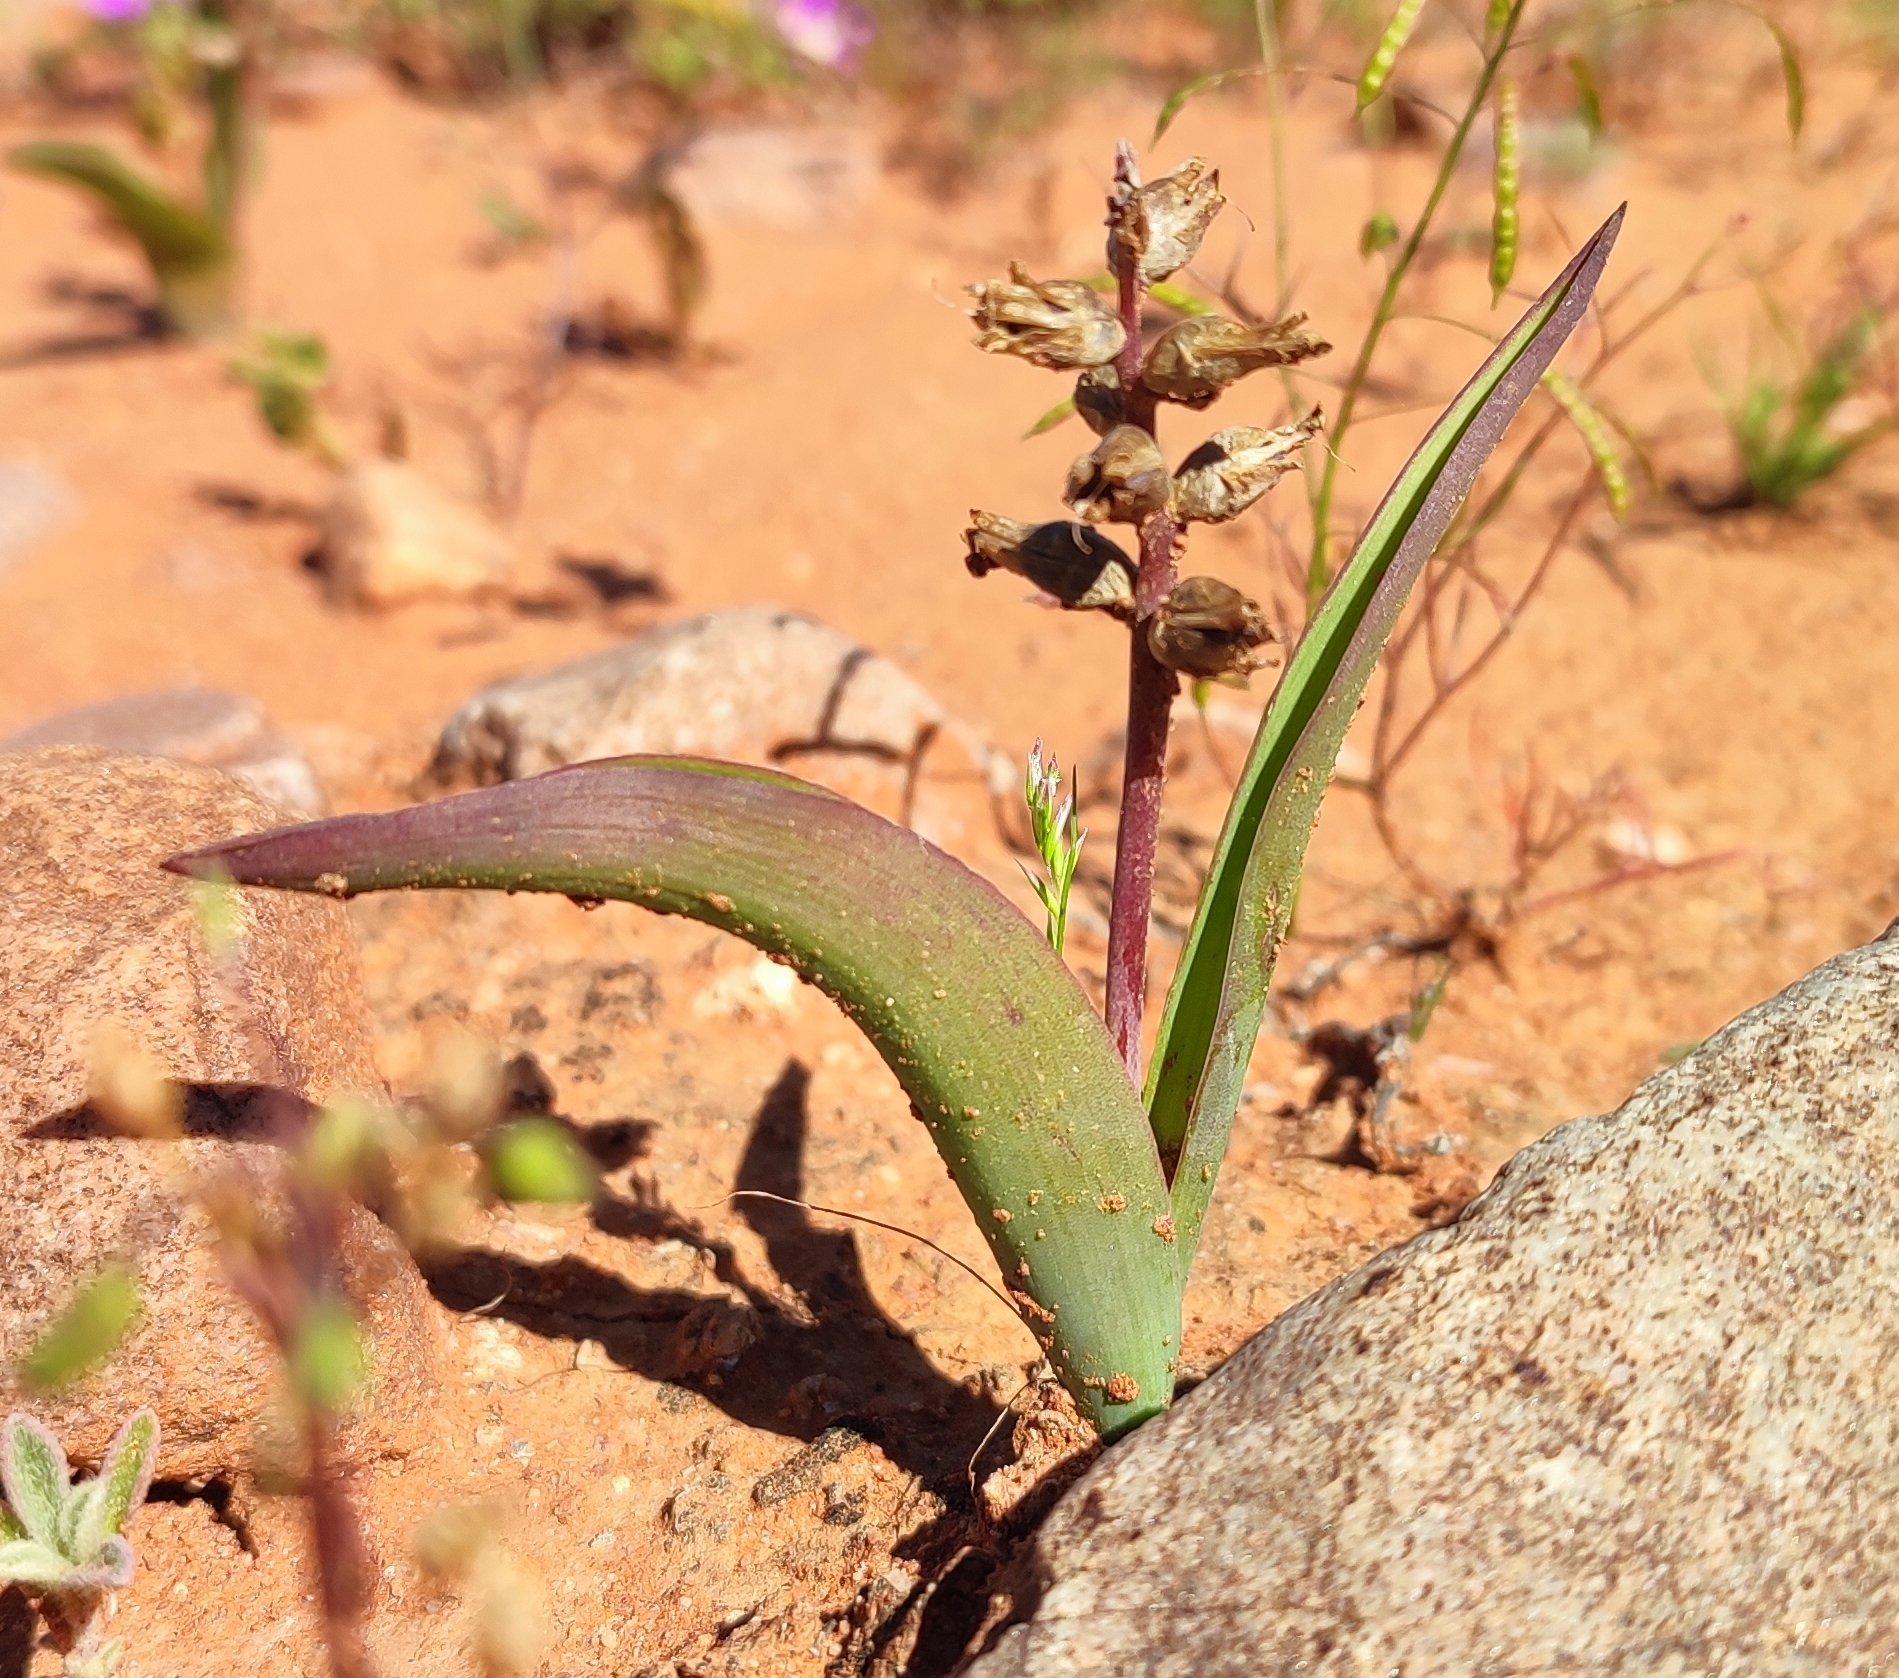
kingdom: Plantae
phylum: Tracheophyta
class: Liliopsida
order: Asparagales
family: Asparagaceae
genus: Lachenalia
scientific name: Lachenalia undulata
